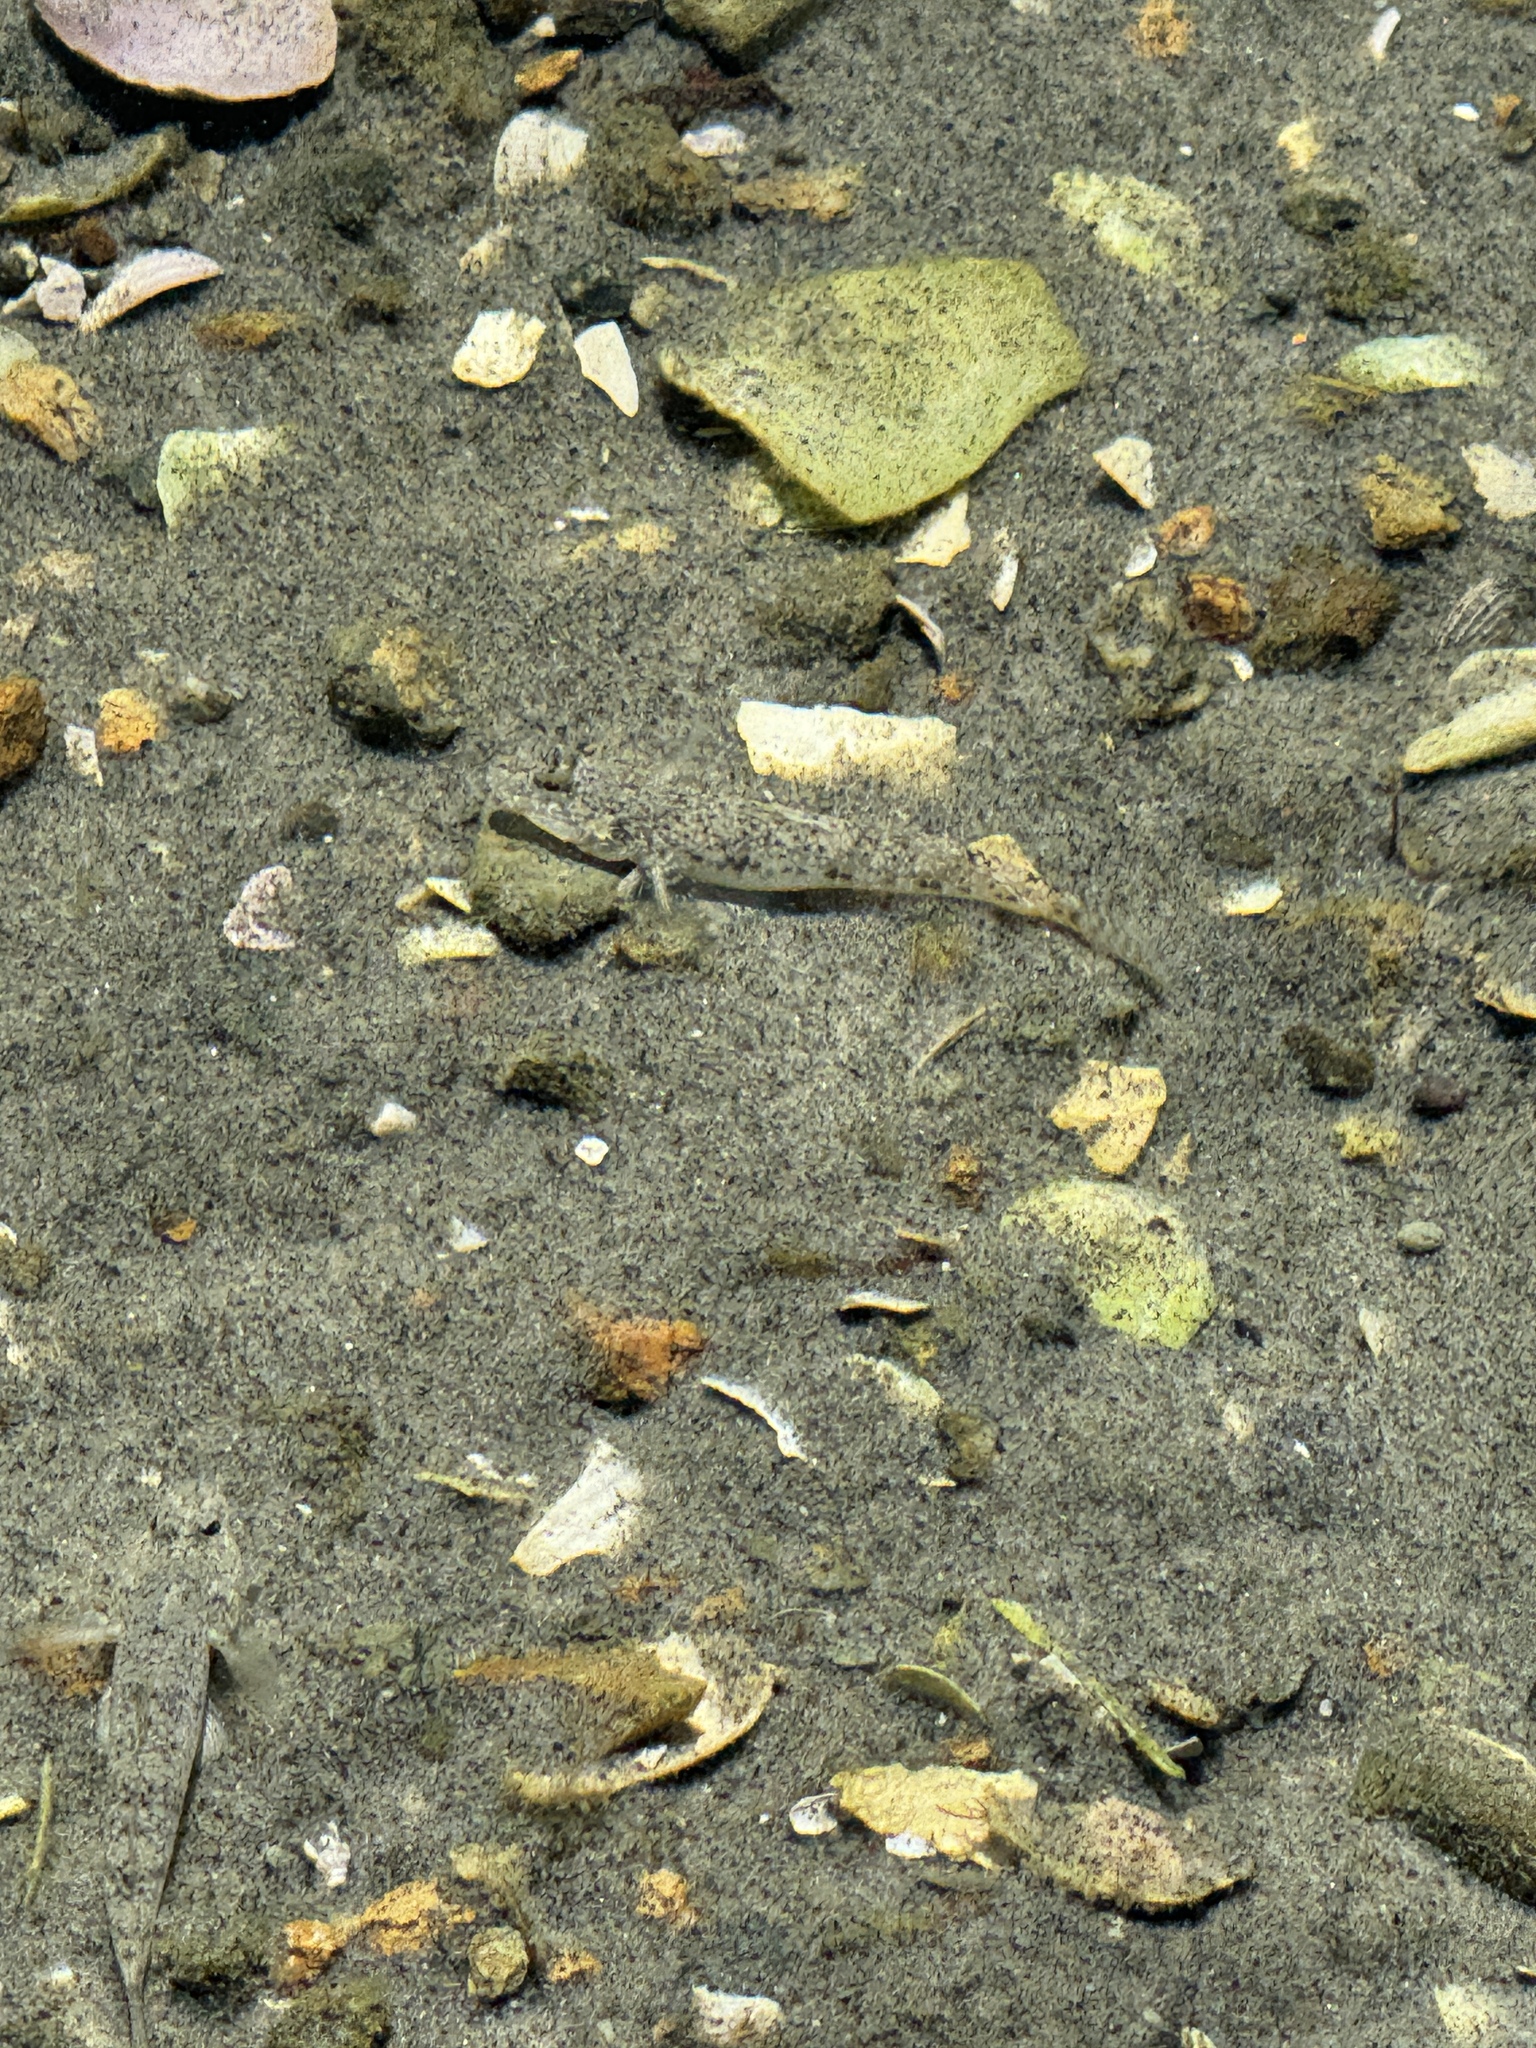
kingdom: Animalia
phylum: Chordata
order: Perciformes
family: Gobiidae
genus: Favonigobius
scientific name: Favonigobius exquisitus
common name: Exquisite sand-goby
